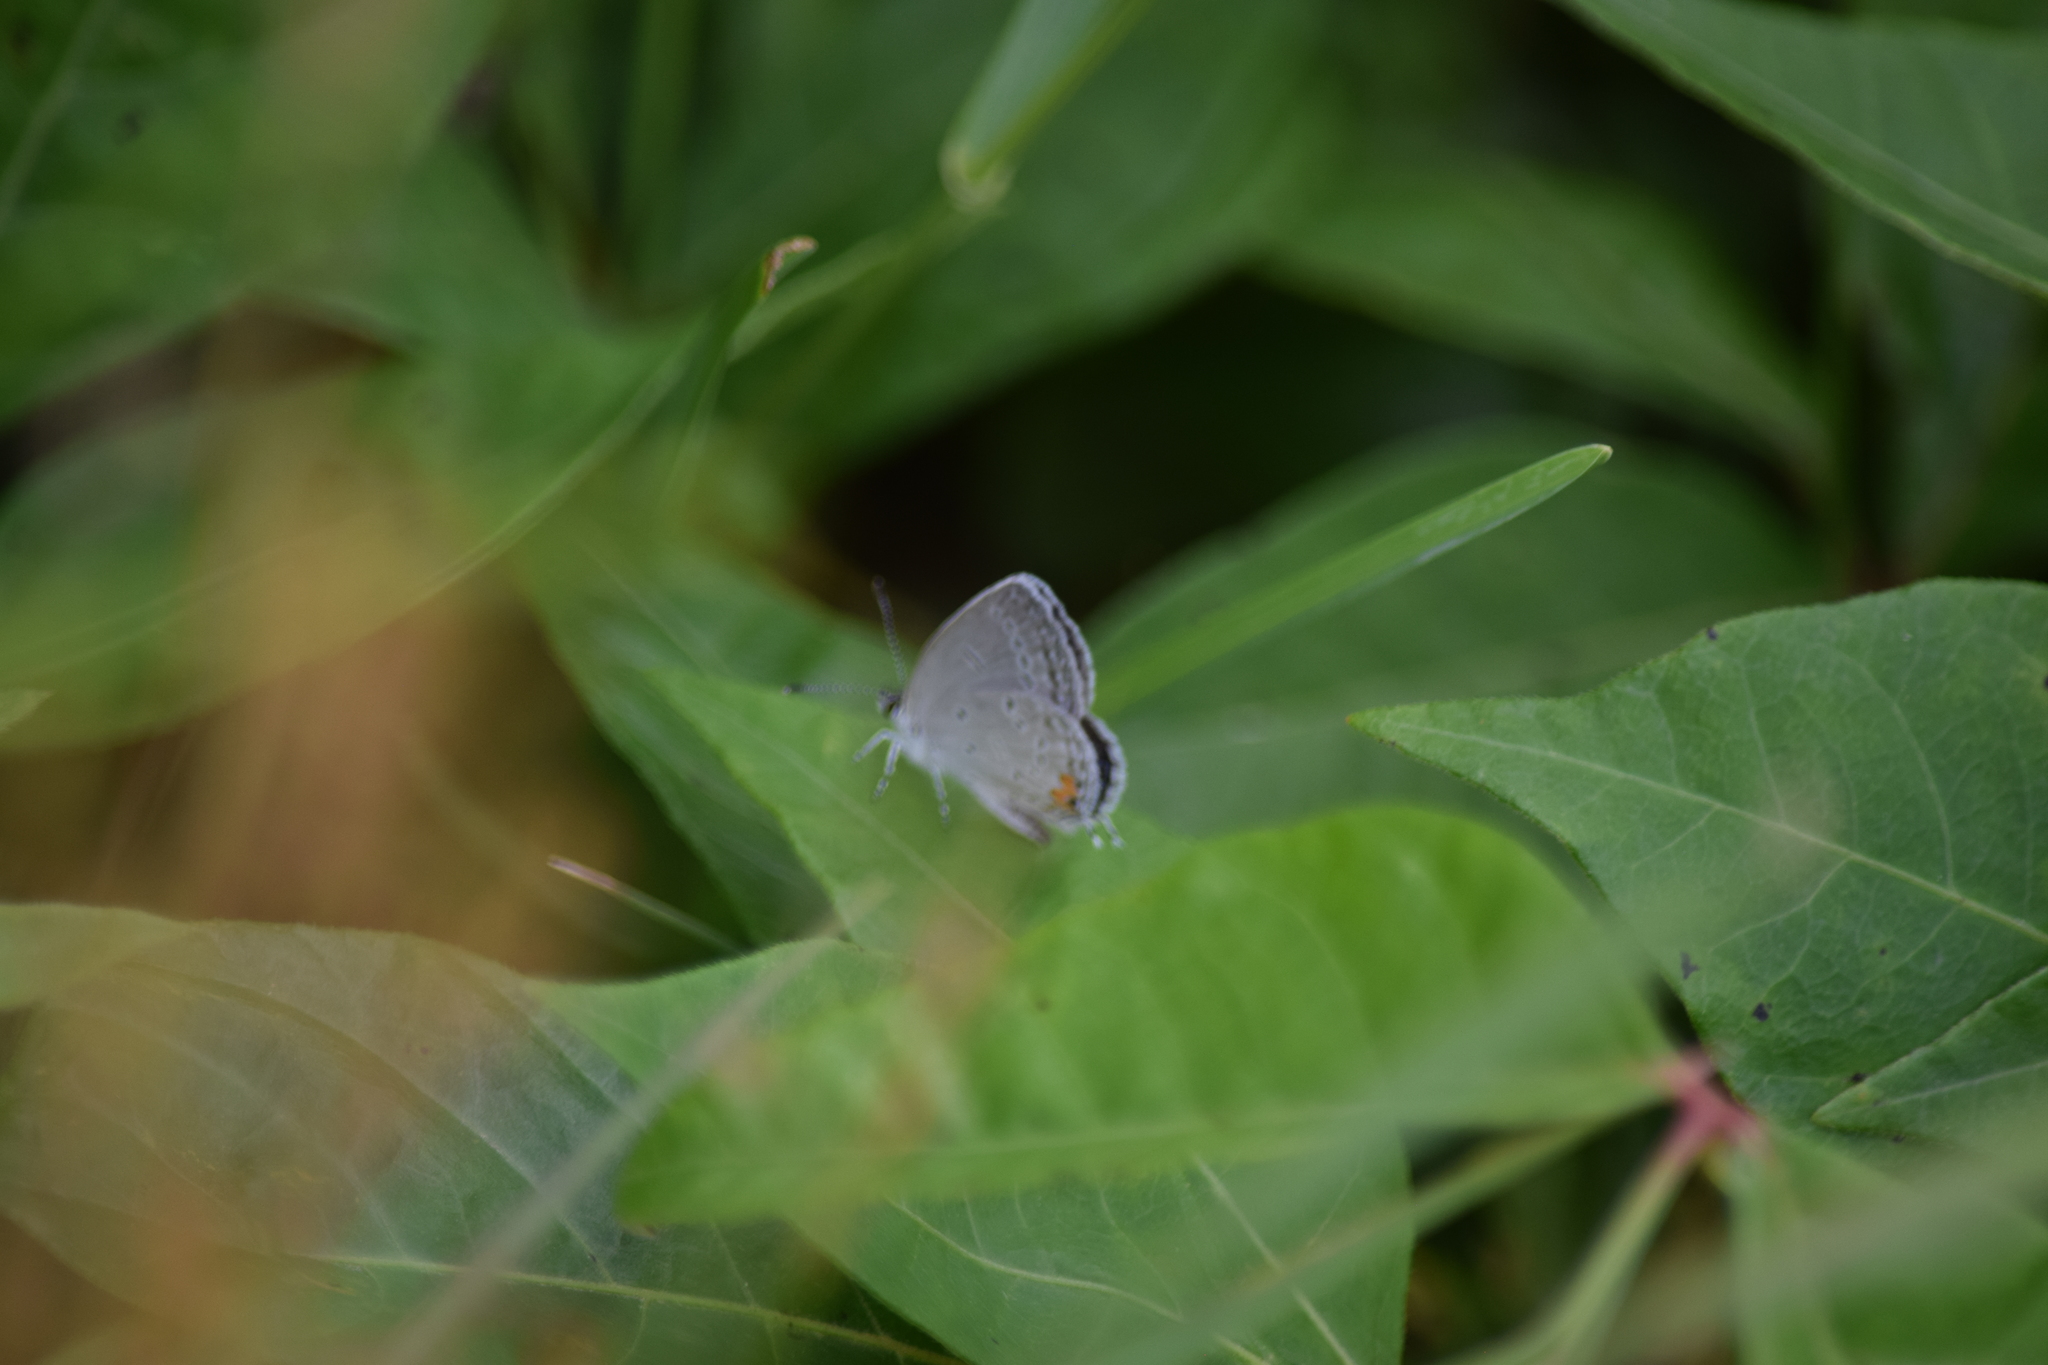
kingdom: Animalia
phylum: Arthropoda
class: Insecta
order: Lepidoptera
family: Lycaenidae
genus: Elkalyce
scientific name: Elkalyce comyntas
